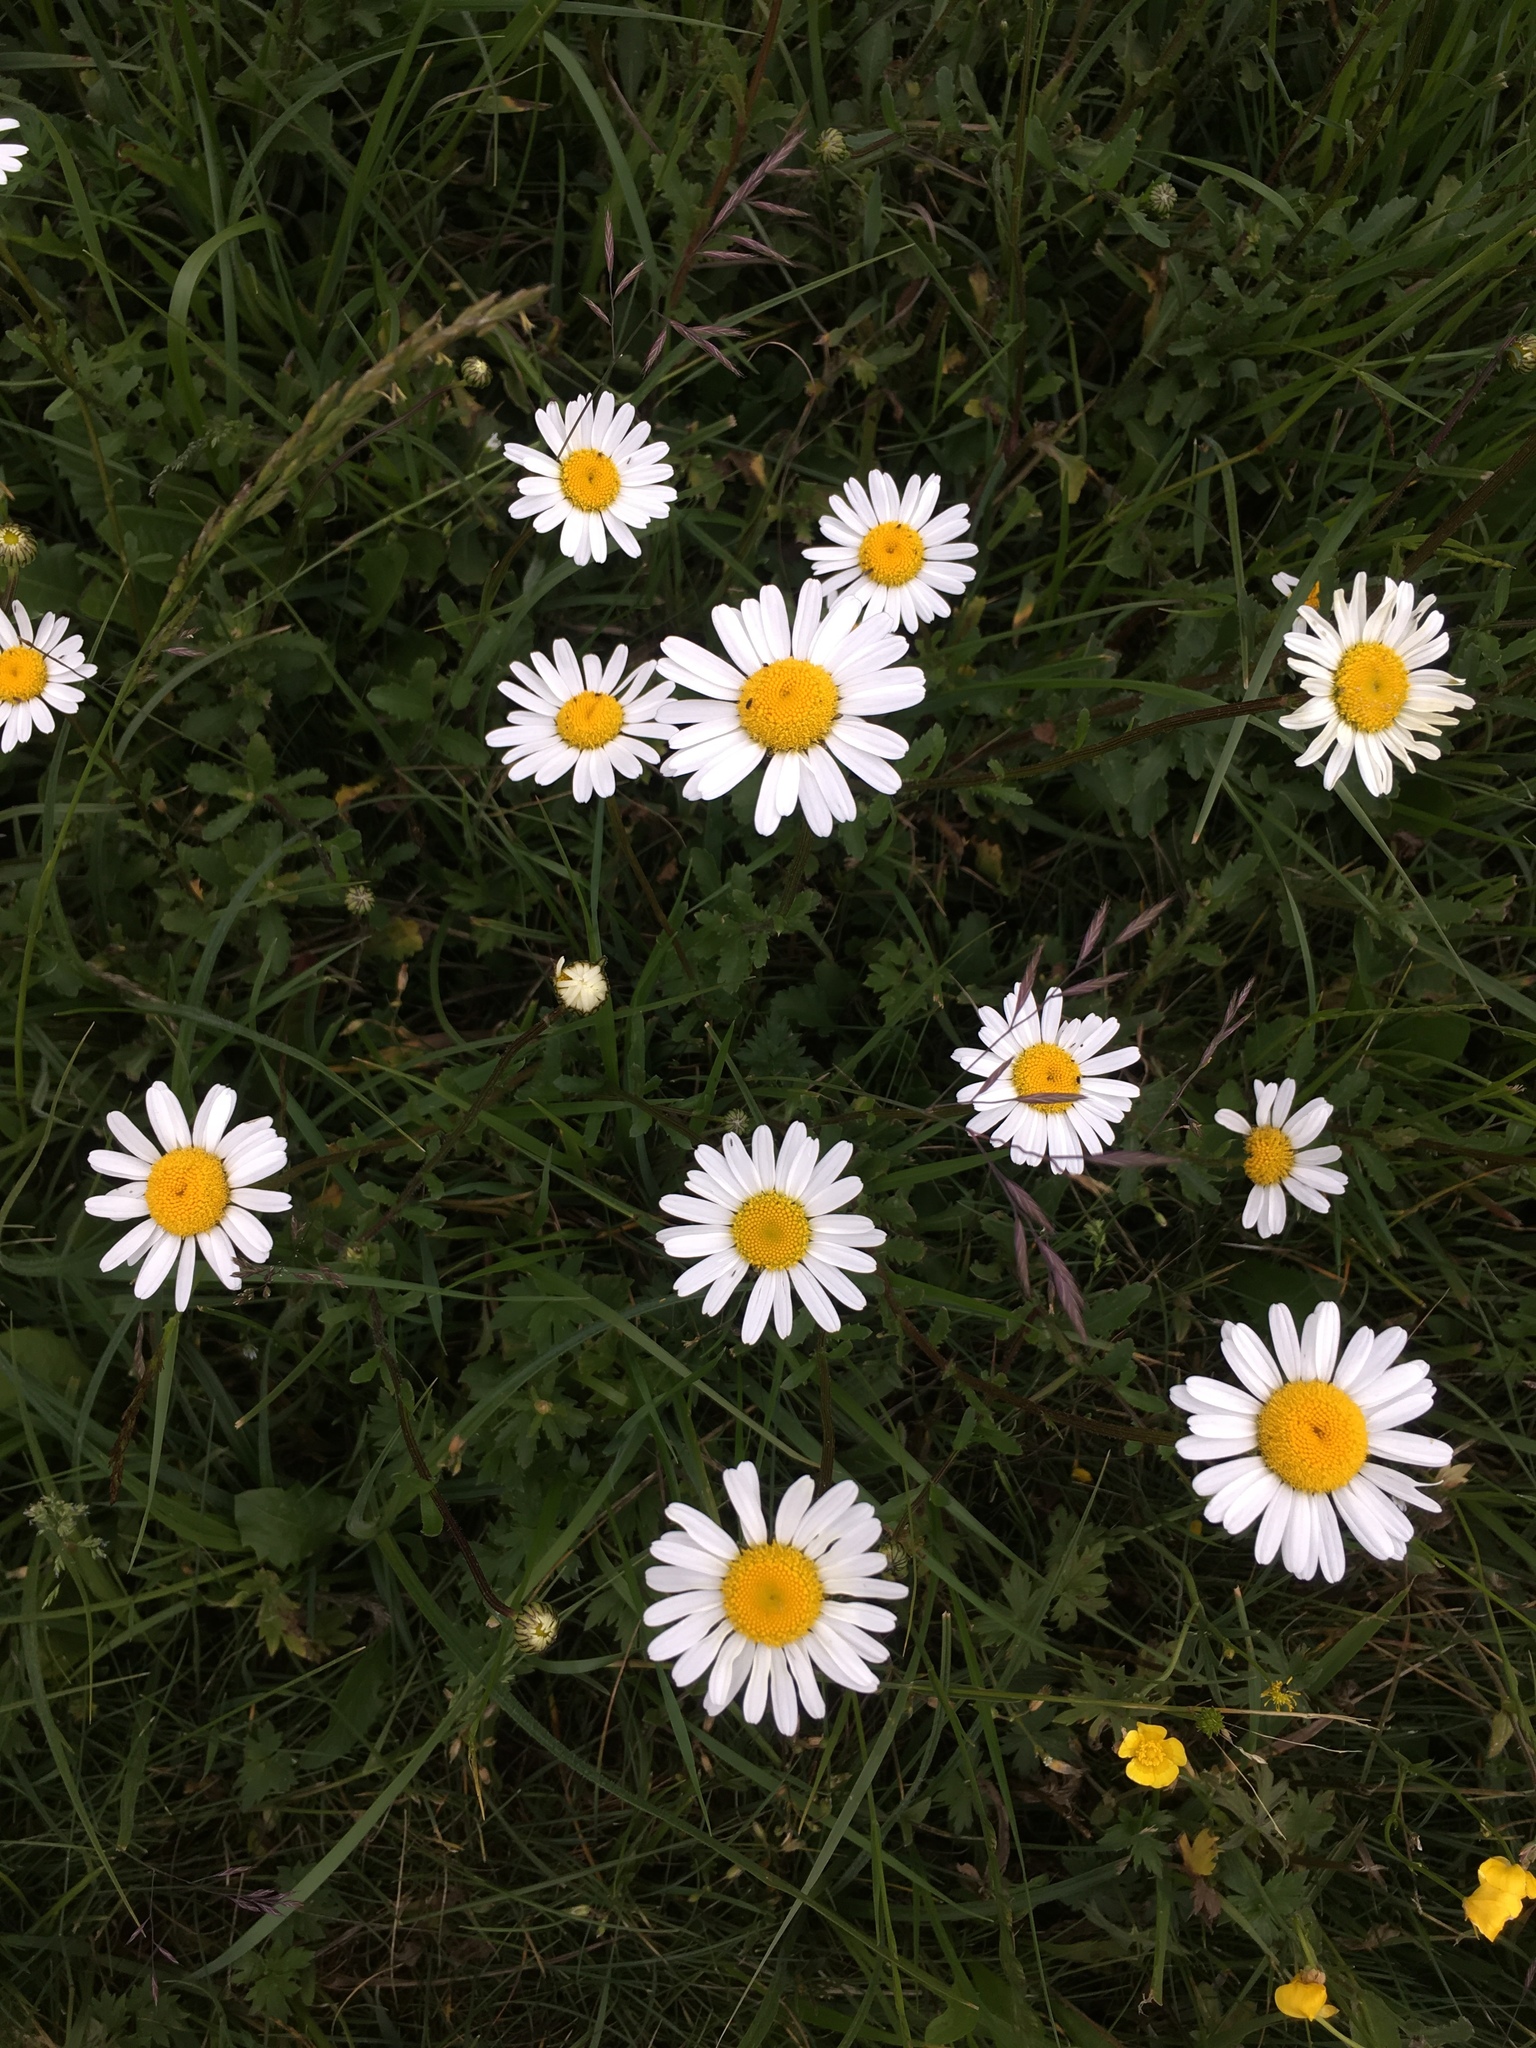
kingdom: Plantae
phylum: Tracheophyta
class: Magnoliopsida
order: Asterales
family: Asteraceae
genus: Leucanthemum
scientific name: Leucanthemum ircutianum
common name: Daisy
